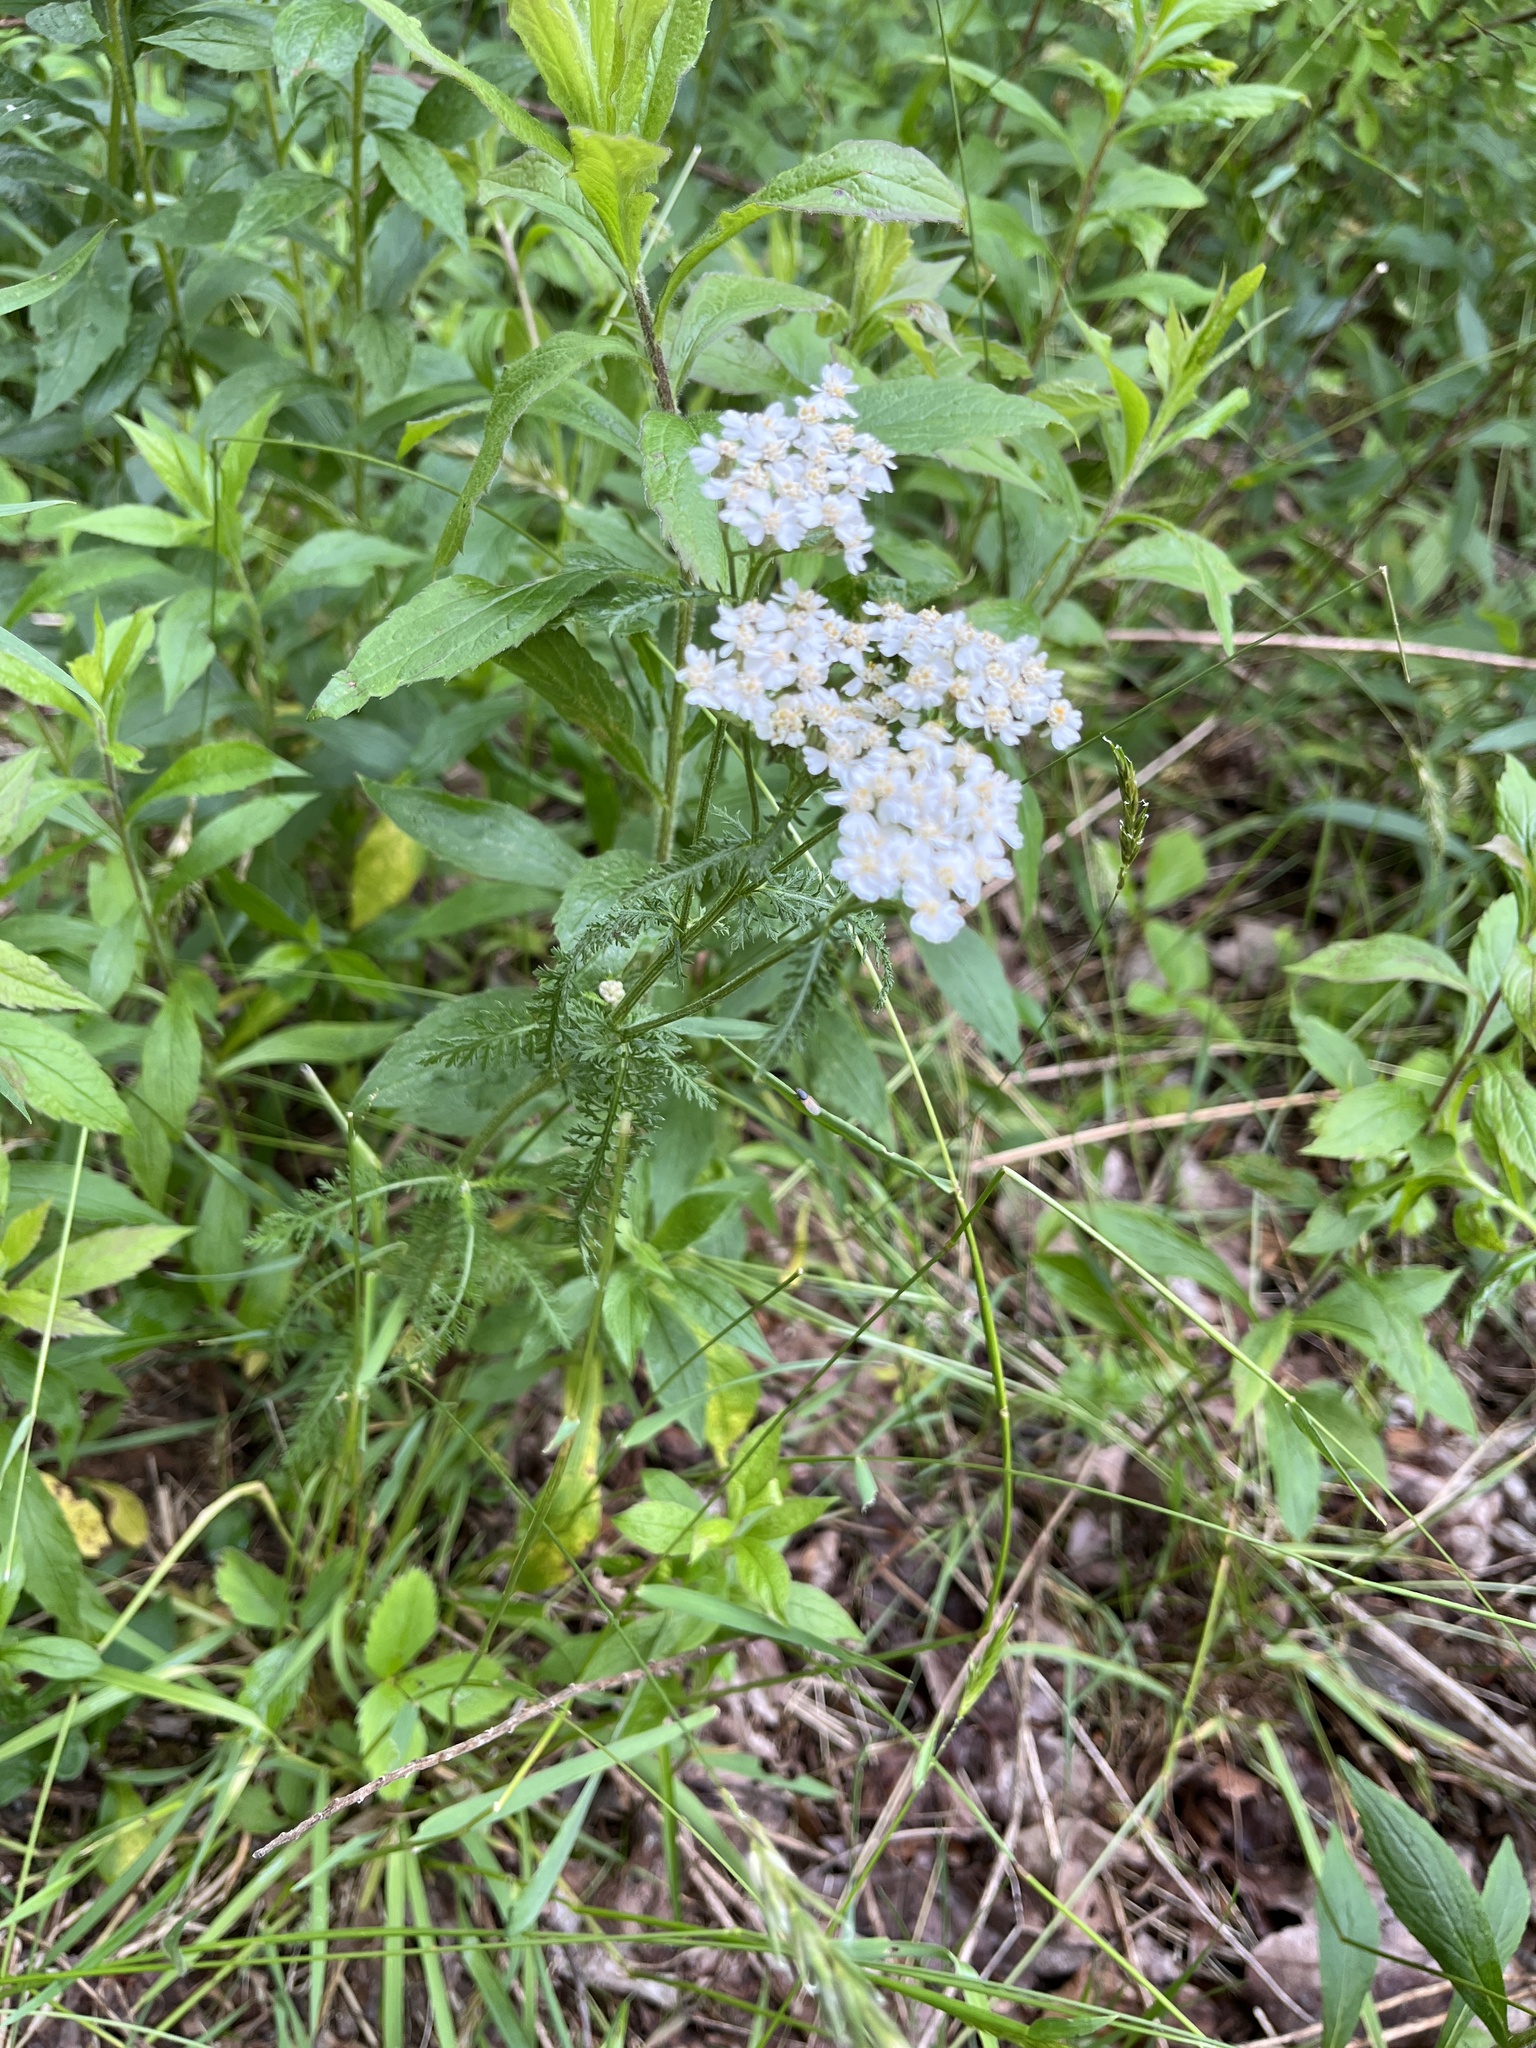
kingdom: Plantae
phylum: Tracheophyta
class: Magnoliopsida
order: Asterales
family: Asteraceae
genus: Achillea
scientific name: Achillea millefolium
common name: Yarrow
